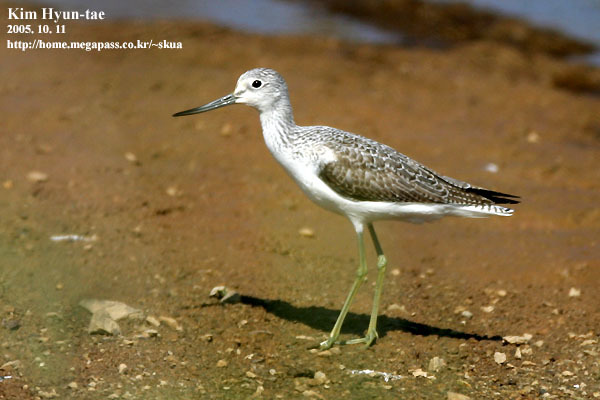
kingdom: Animalia
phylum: Chordata
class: Aves
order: Charadriiformes
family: Scolopacidae
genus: Tringa
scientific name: Tringa nebularia
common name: Common greenshank
